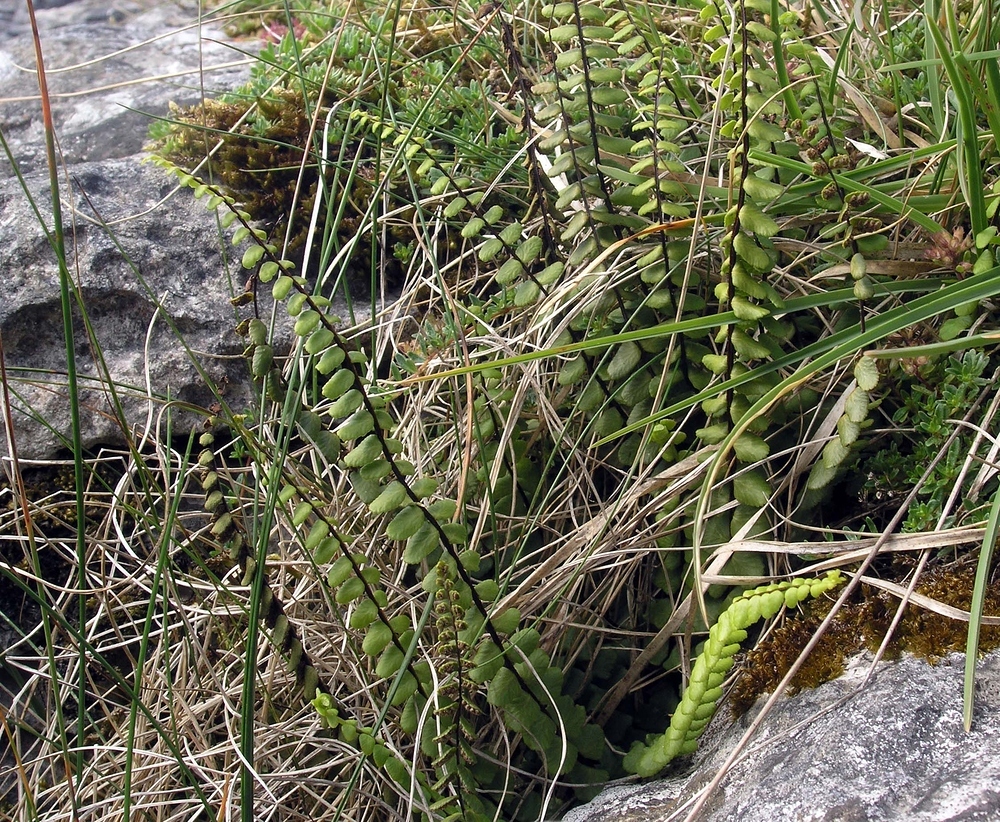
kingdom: Plantae
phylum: Tracheophyta
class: Polypodiopsida
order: Polypodiales
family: Aspleniaceae
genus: Asplenium
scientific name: Asplenium trichomanes
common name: Maidenhair spleenwort
